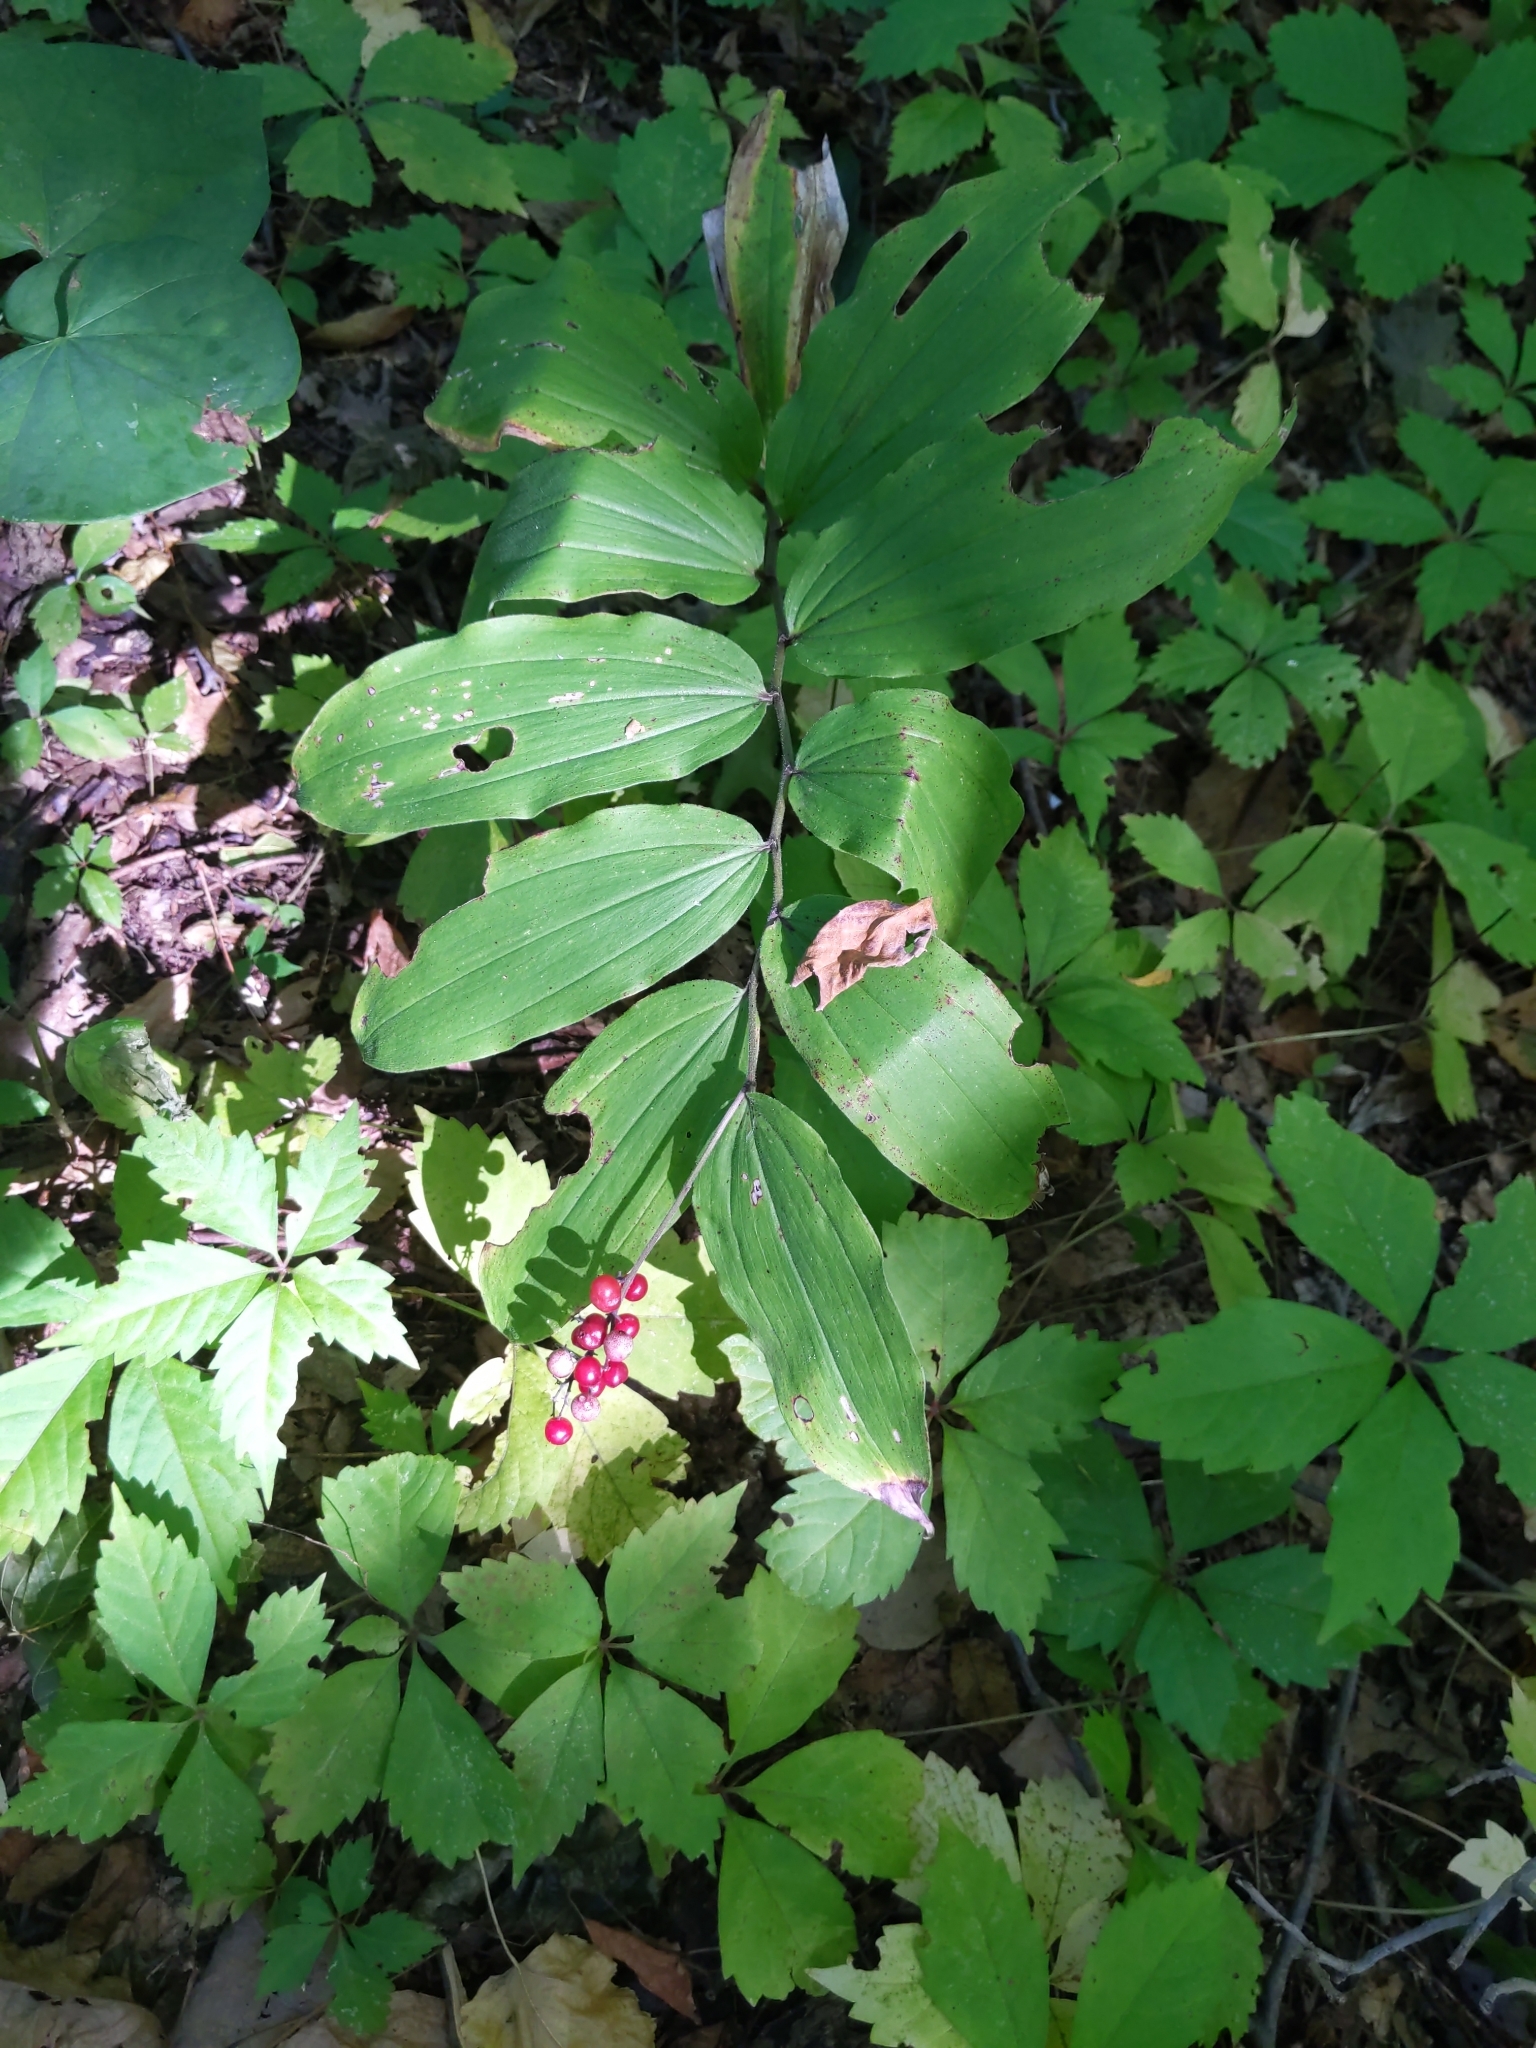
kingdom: Plantae
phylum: Tracheophyta
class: Liliopsida
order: Asparagales
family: Asparagaceae
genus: Maianthemum
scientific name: Maianthemum racemosum
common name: False spikenard
